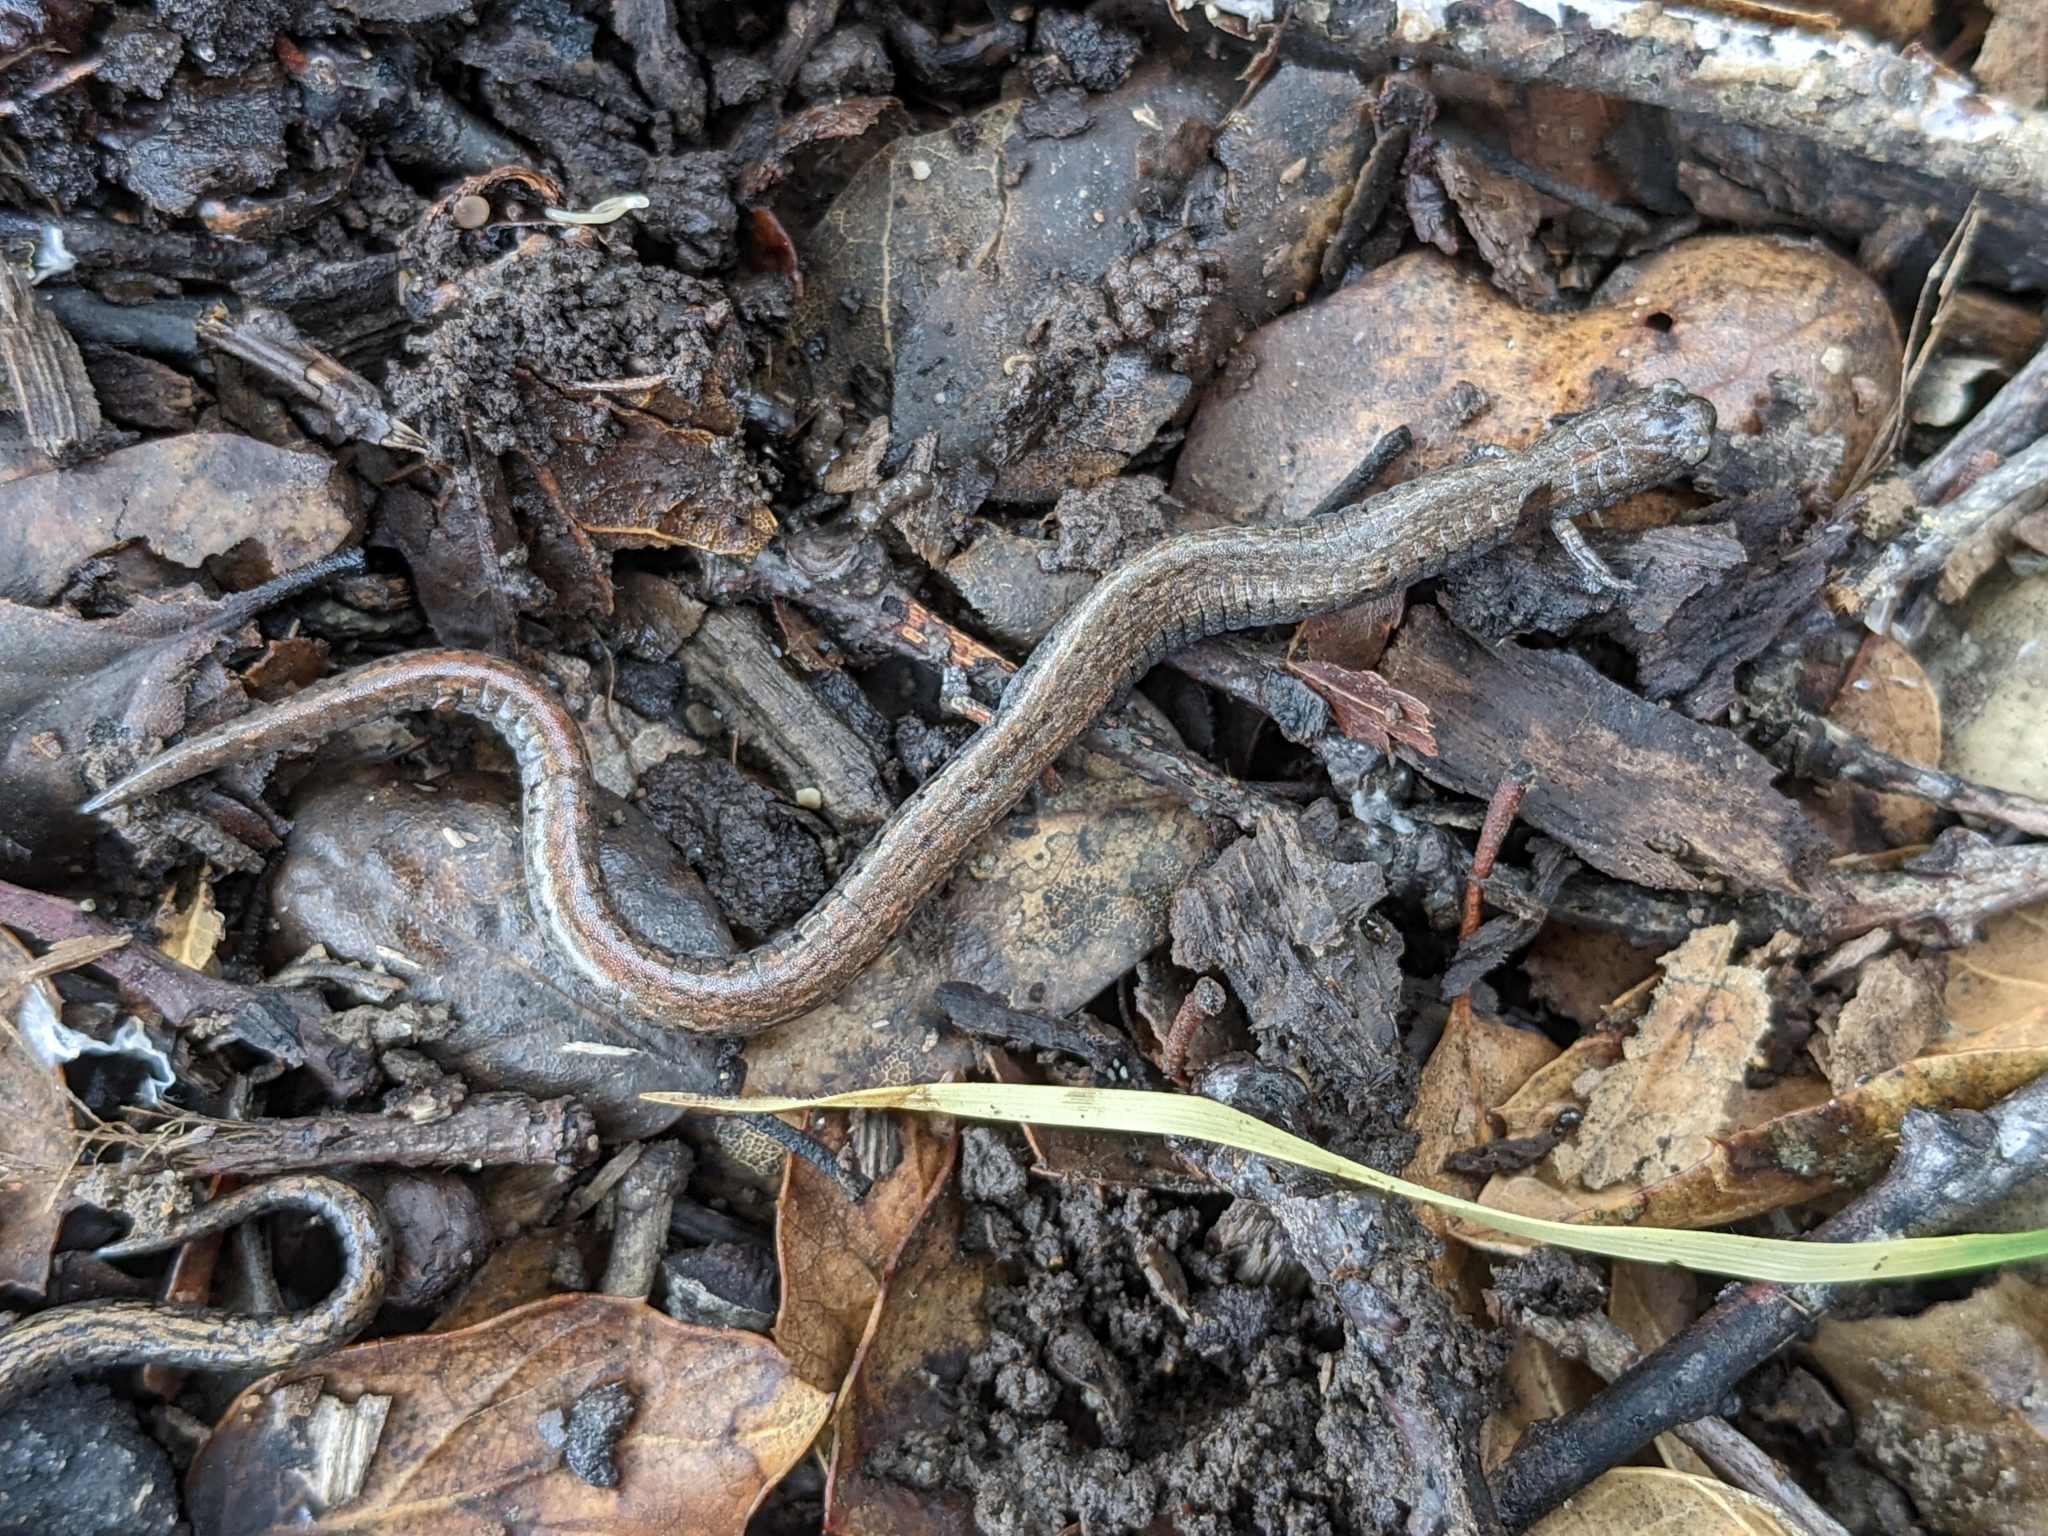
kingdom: Animalia
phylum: Chordata
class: Amphibia
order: Caudata
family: Plethodontidae
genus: Batrachoseps
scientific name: Batrachoseps attenuatus
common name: California slender salamander
